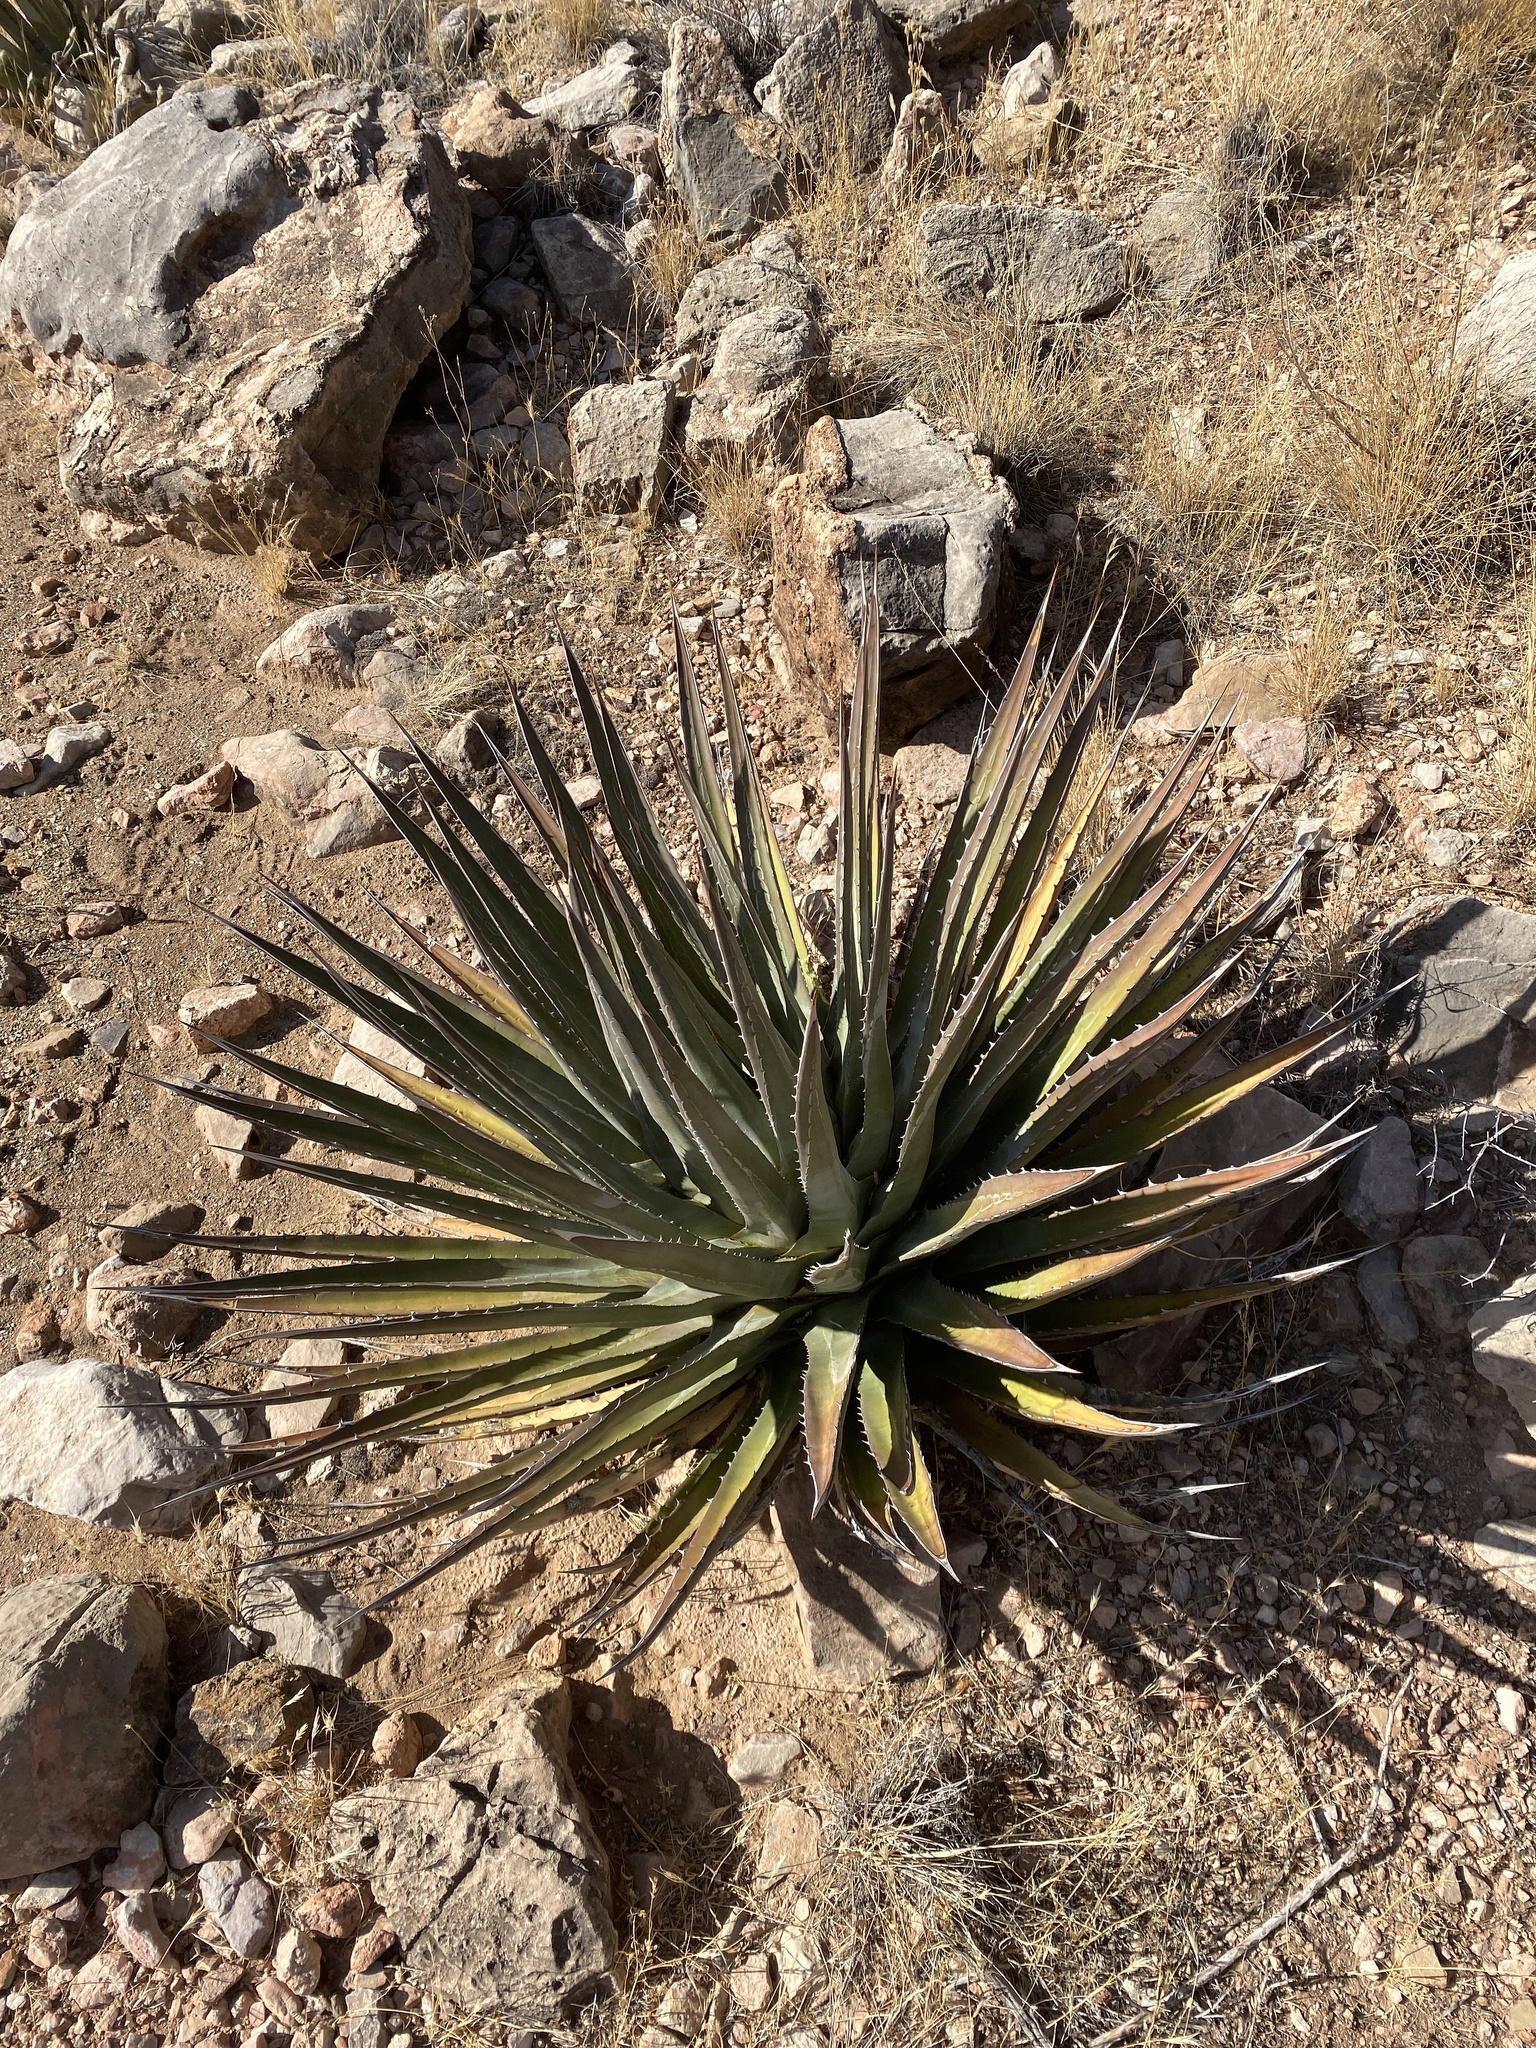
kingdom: Plantae
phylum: Tracheophyta
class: Liliopsida
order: Asparagales
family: Asparagaceae
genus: Agave
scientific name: Agave utahensis
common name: Utah agave
